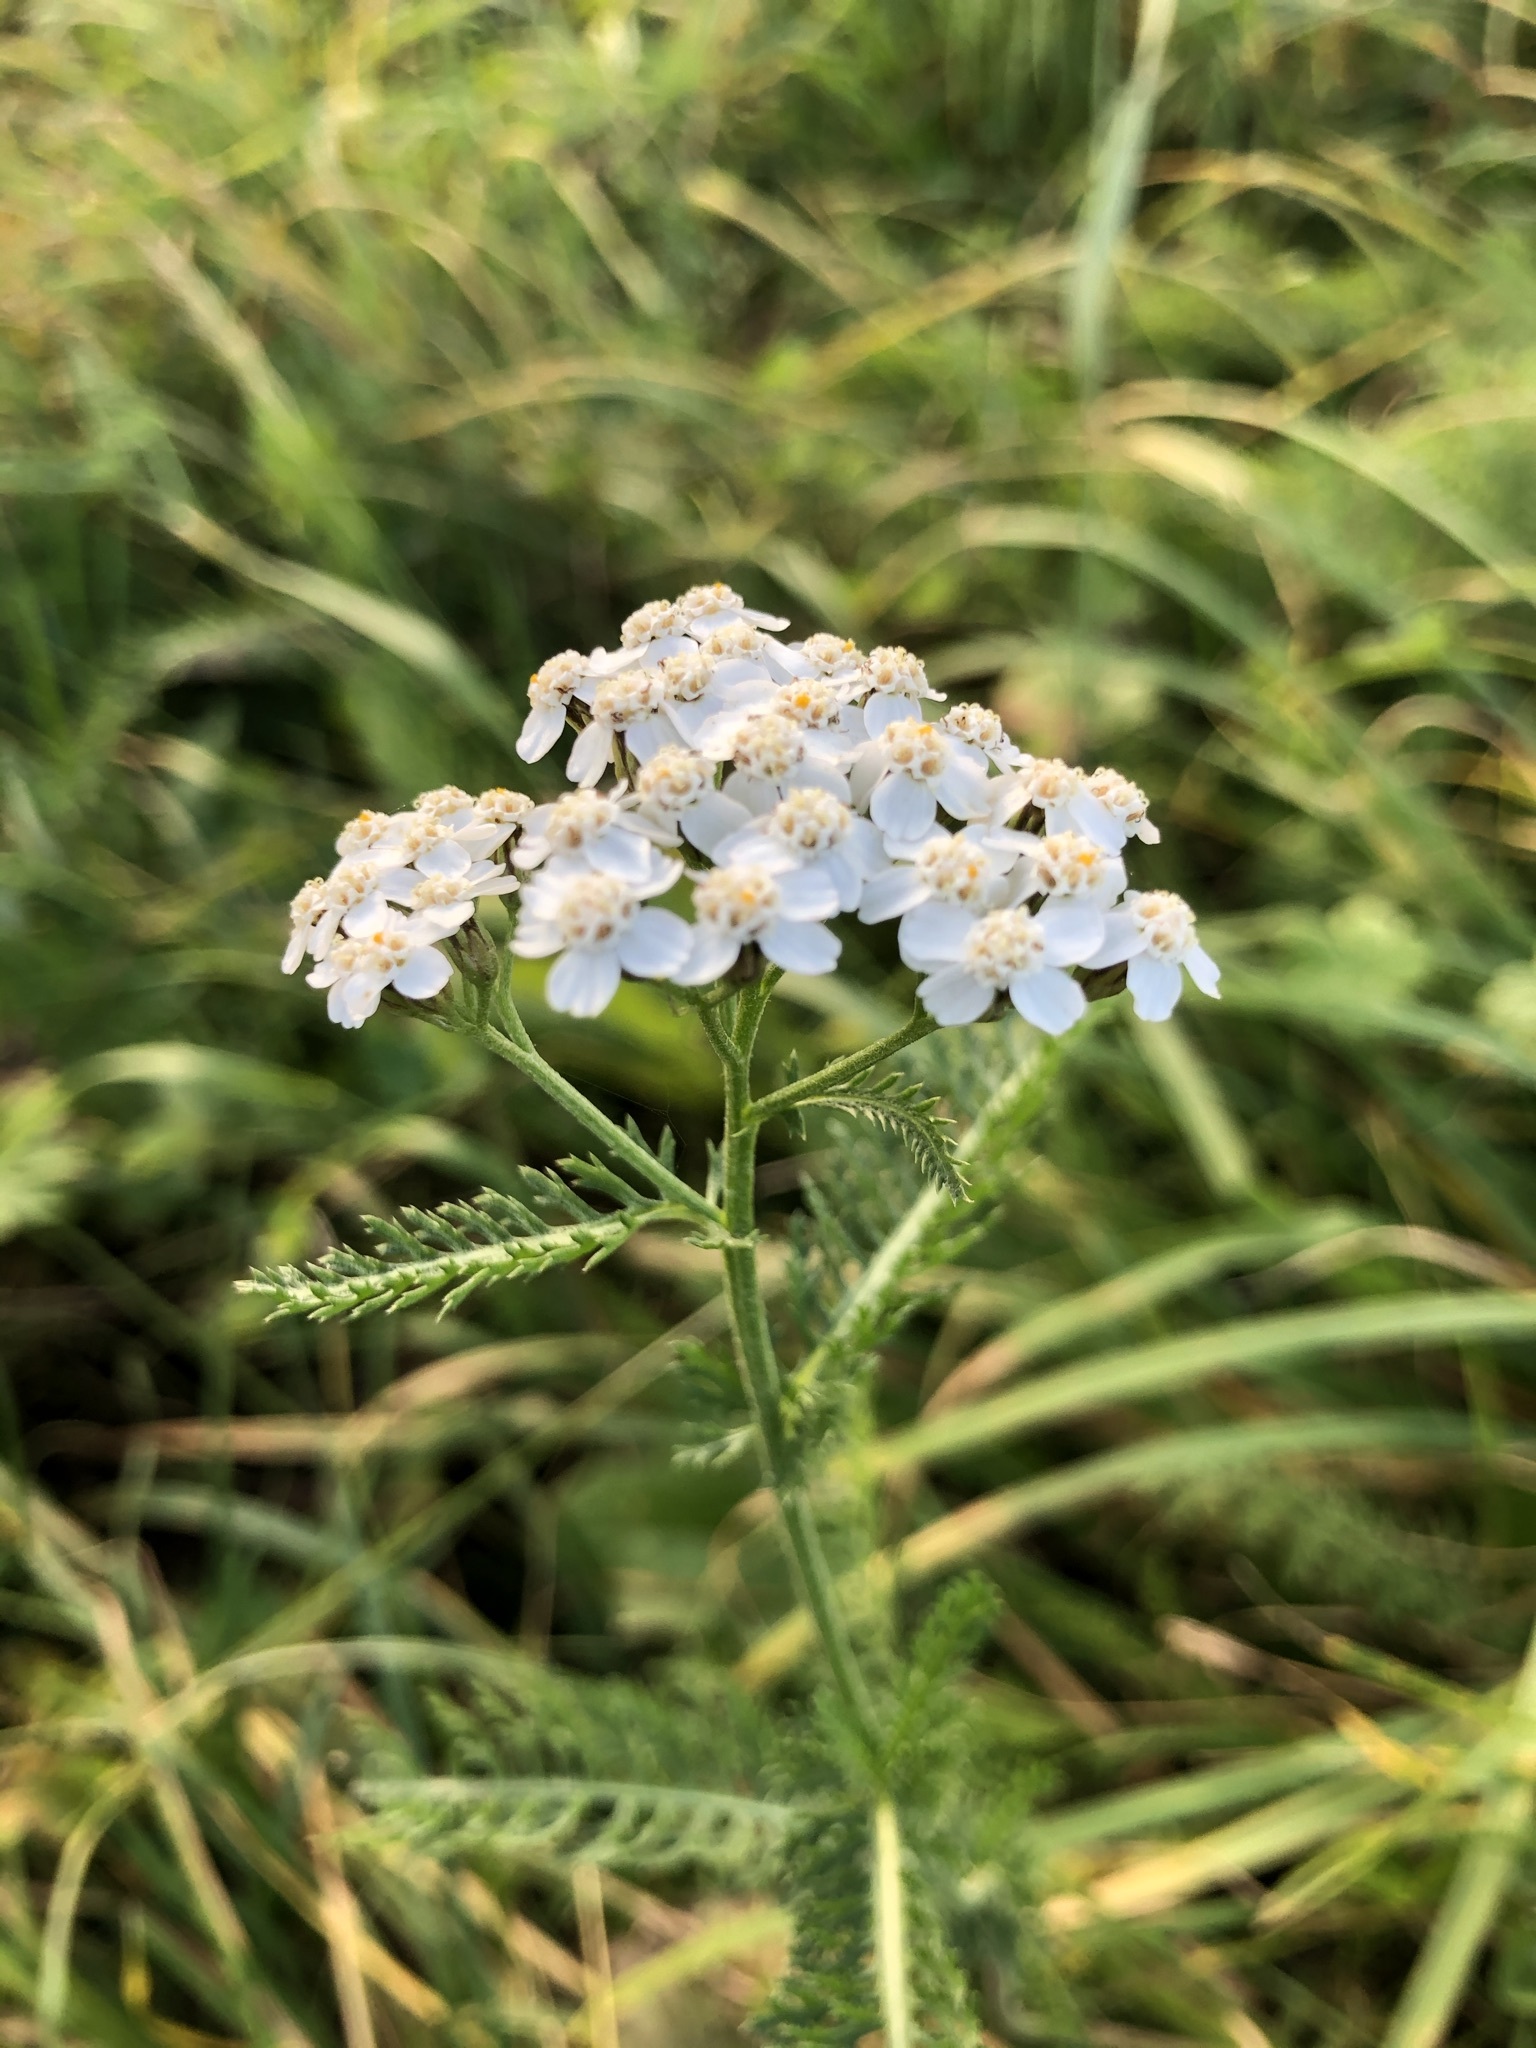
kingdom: Plantae
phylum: Tracheophyta
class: Magnoliopsida
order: Asterales
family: Asteraceae
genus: Achillea
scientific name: Achillea millefolium
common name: Yarrow
